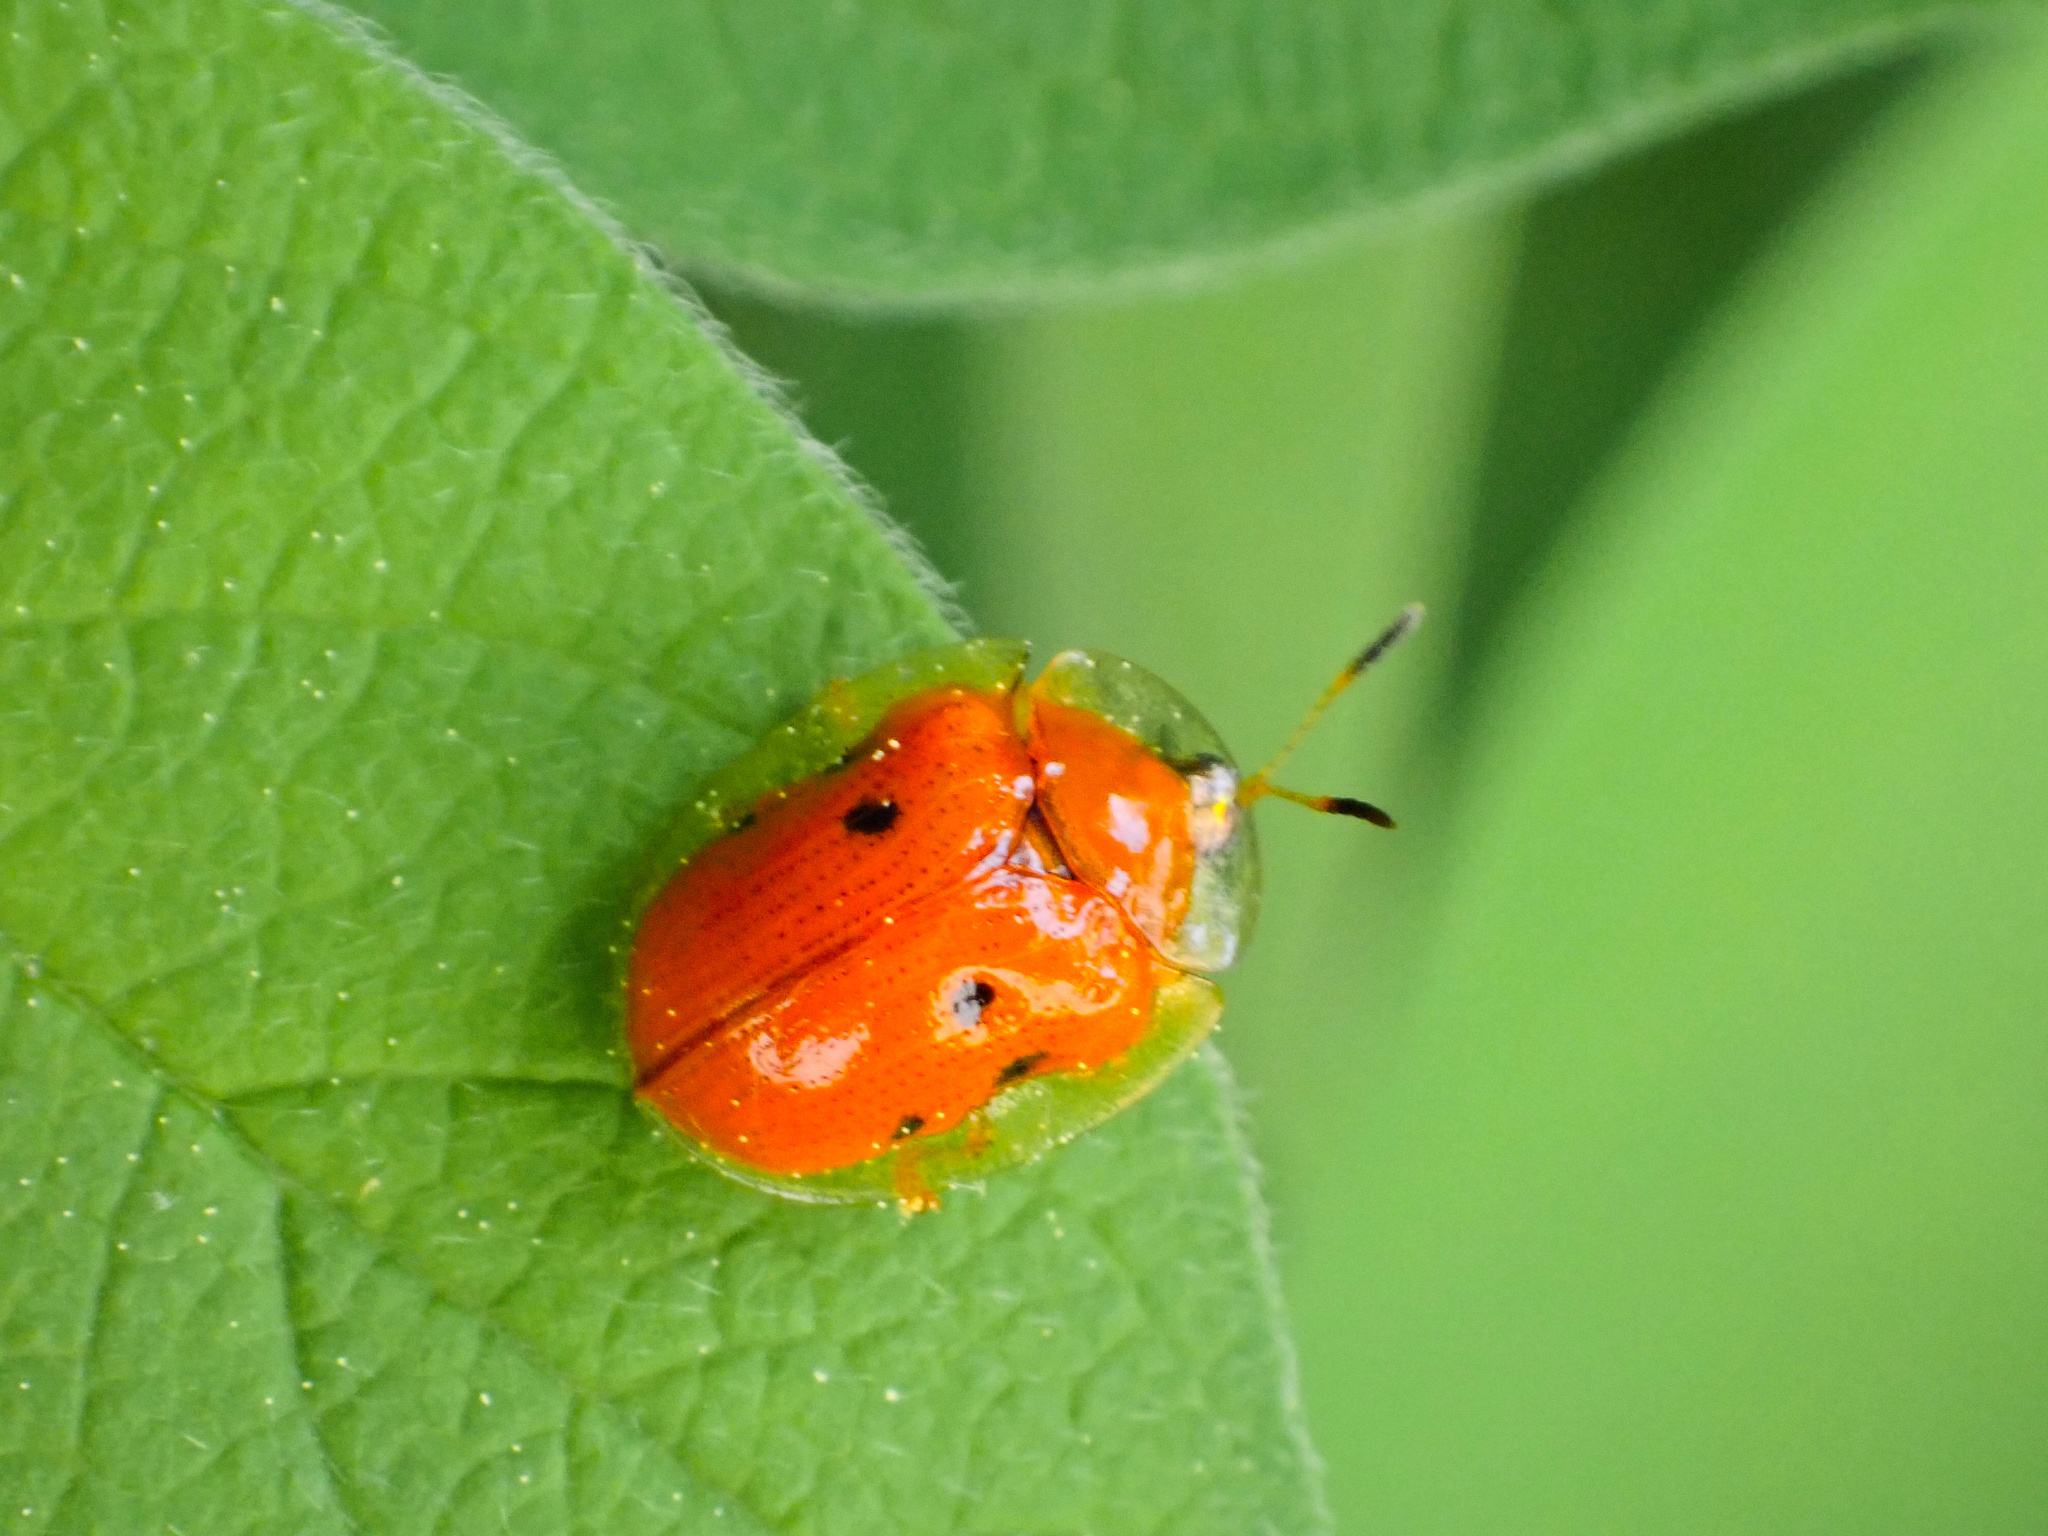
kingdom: Animalia
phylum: Arthropoda
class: Insecta
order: Coleoptera
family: Chrysomelidae
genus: Charidotella
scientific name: Charidotella sexpunctata
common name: Golden tortoise beetle
